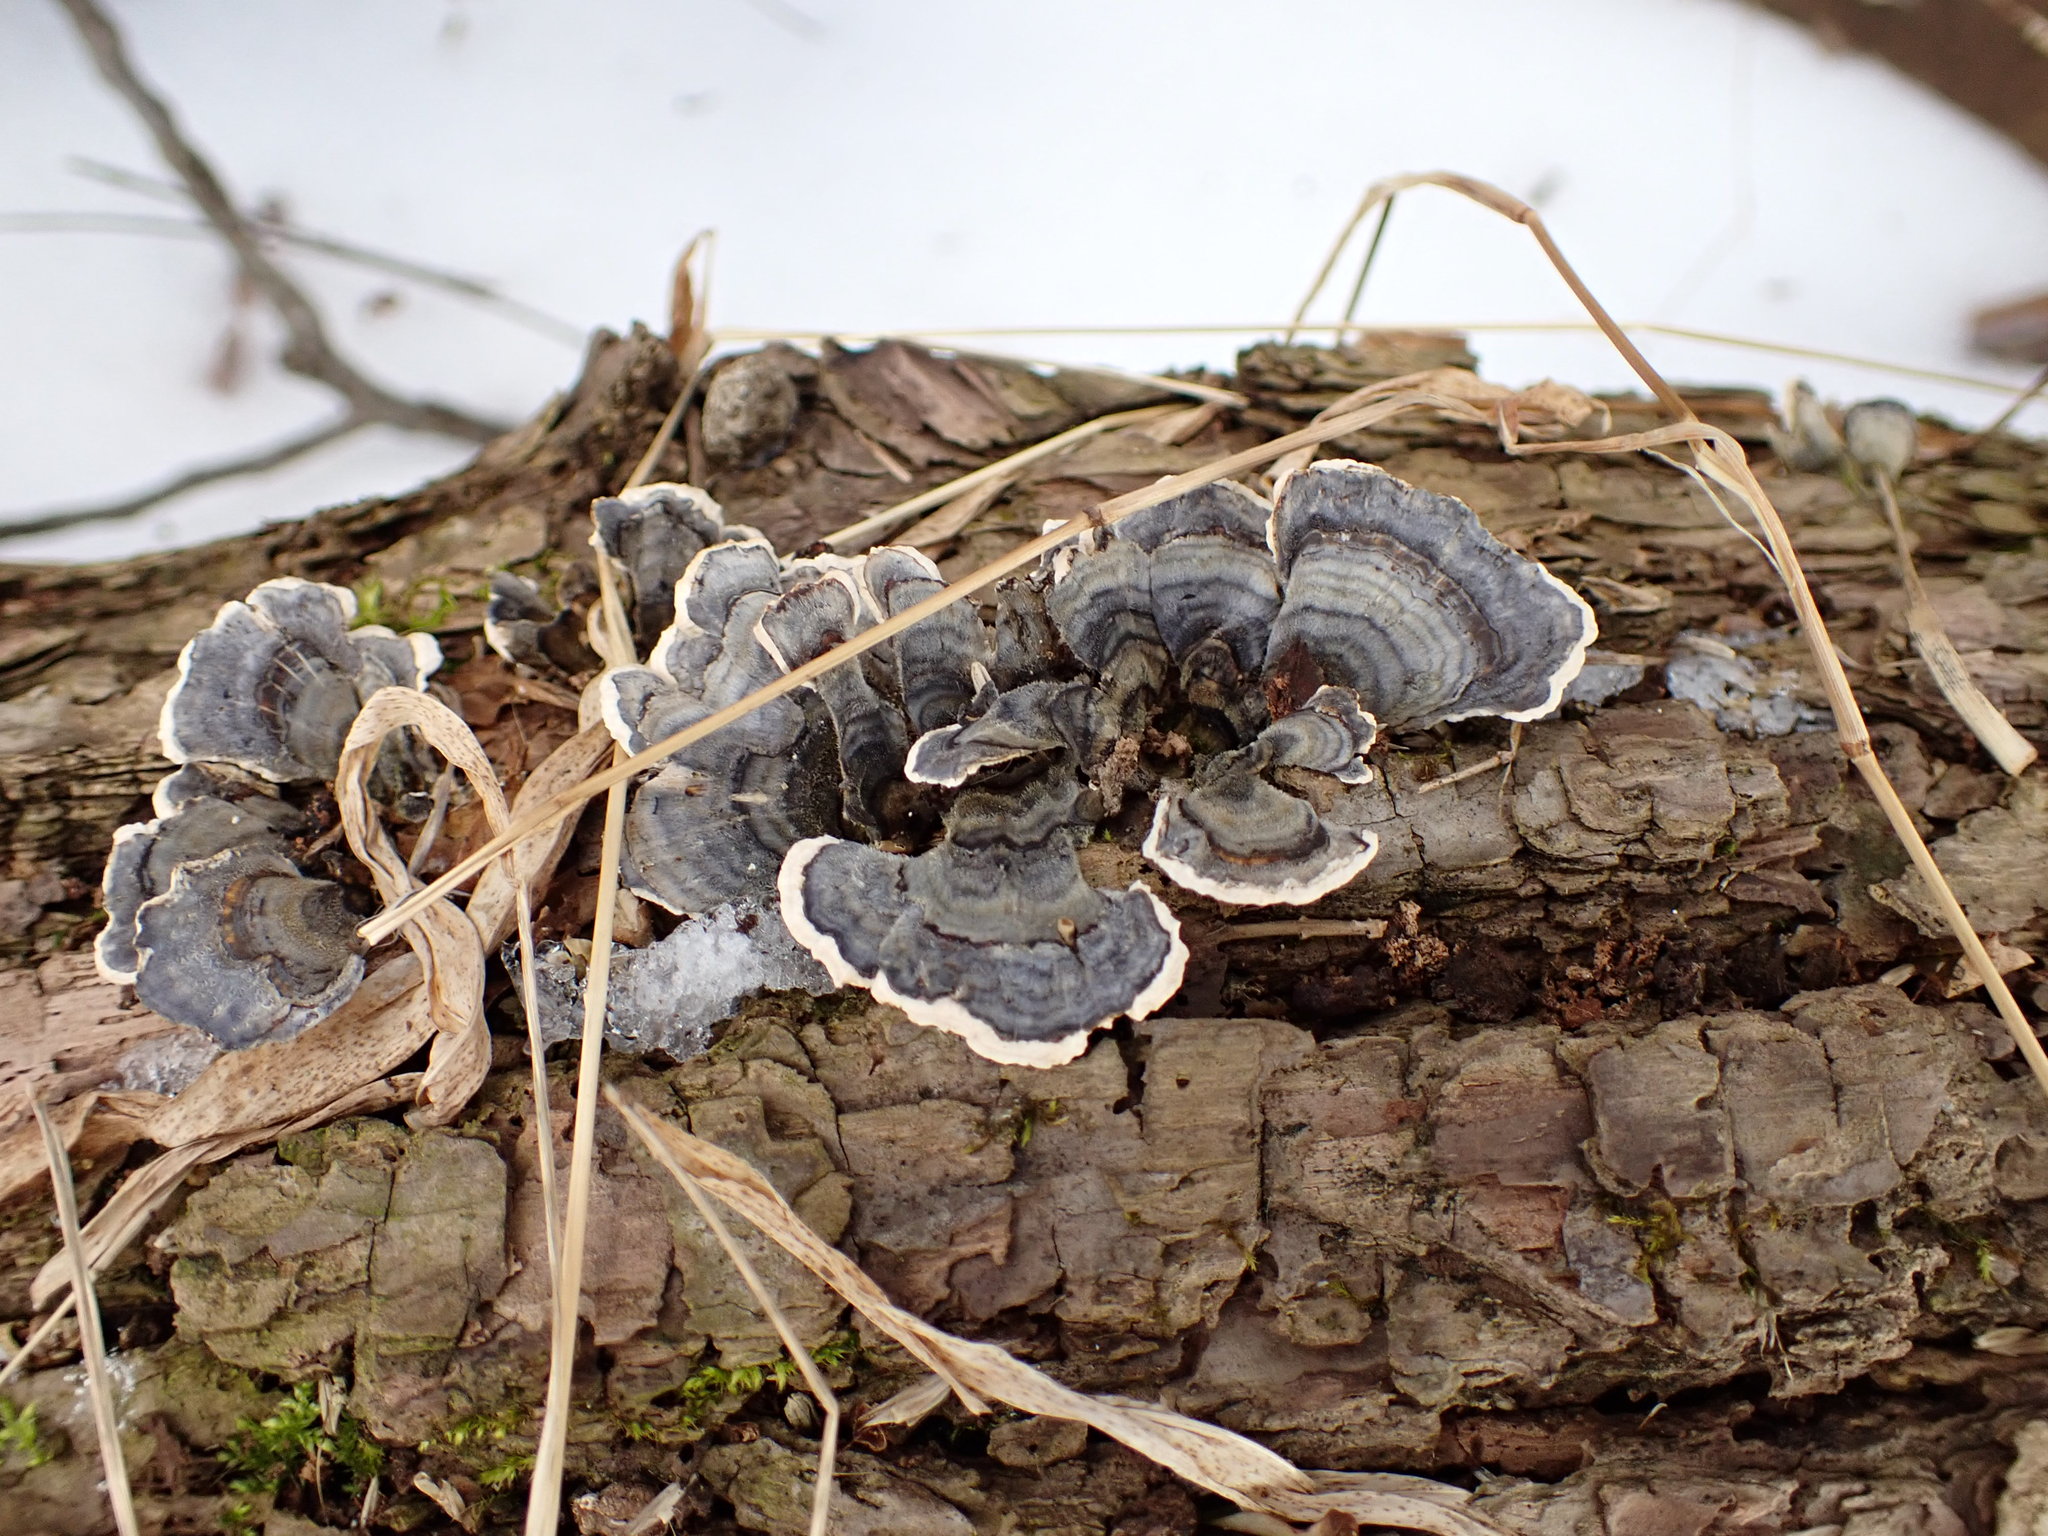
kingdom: Fungi
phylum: Basidiomycota
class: Agaricomycetes
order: Polyporales
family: Polyporaceae
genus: Trametes
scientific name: Trametes versicolor
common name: Turkeytail
